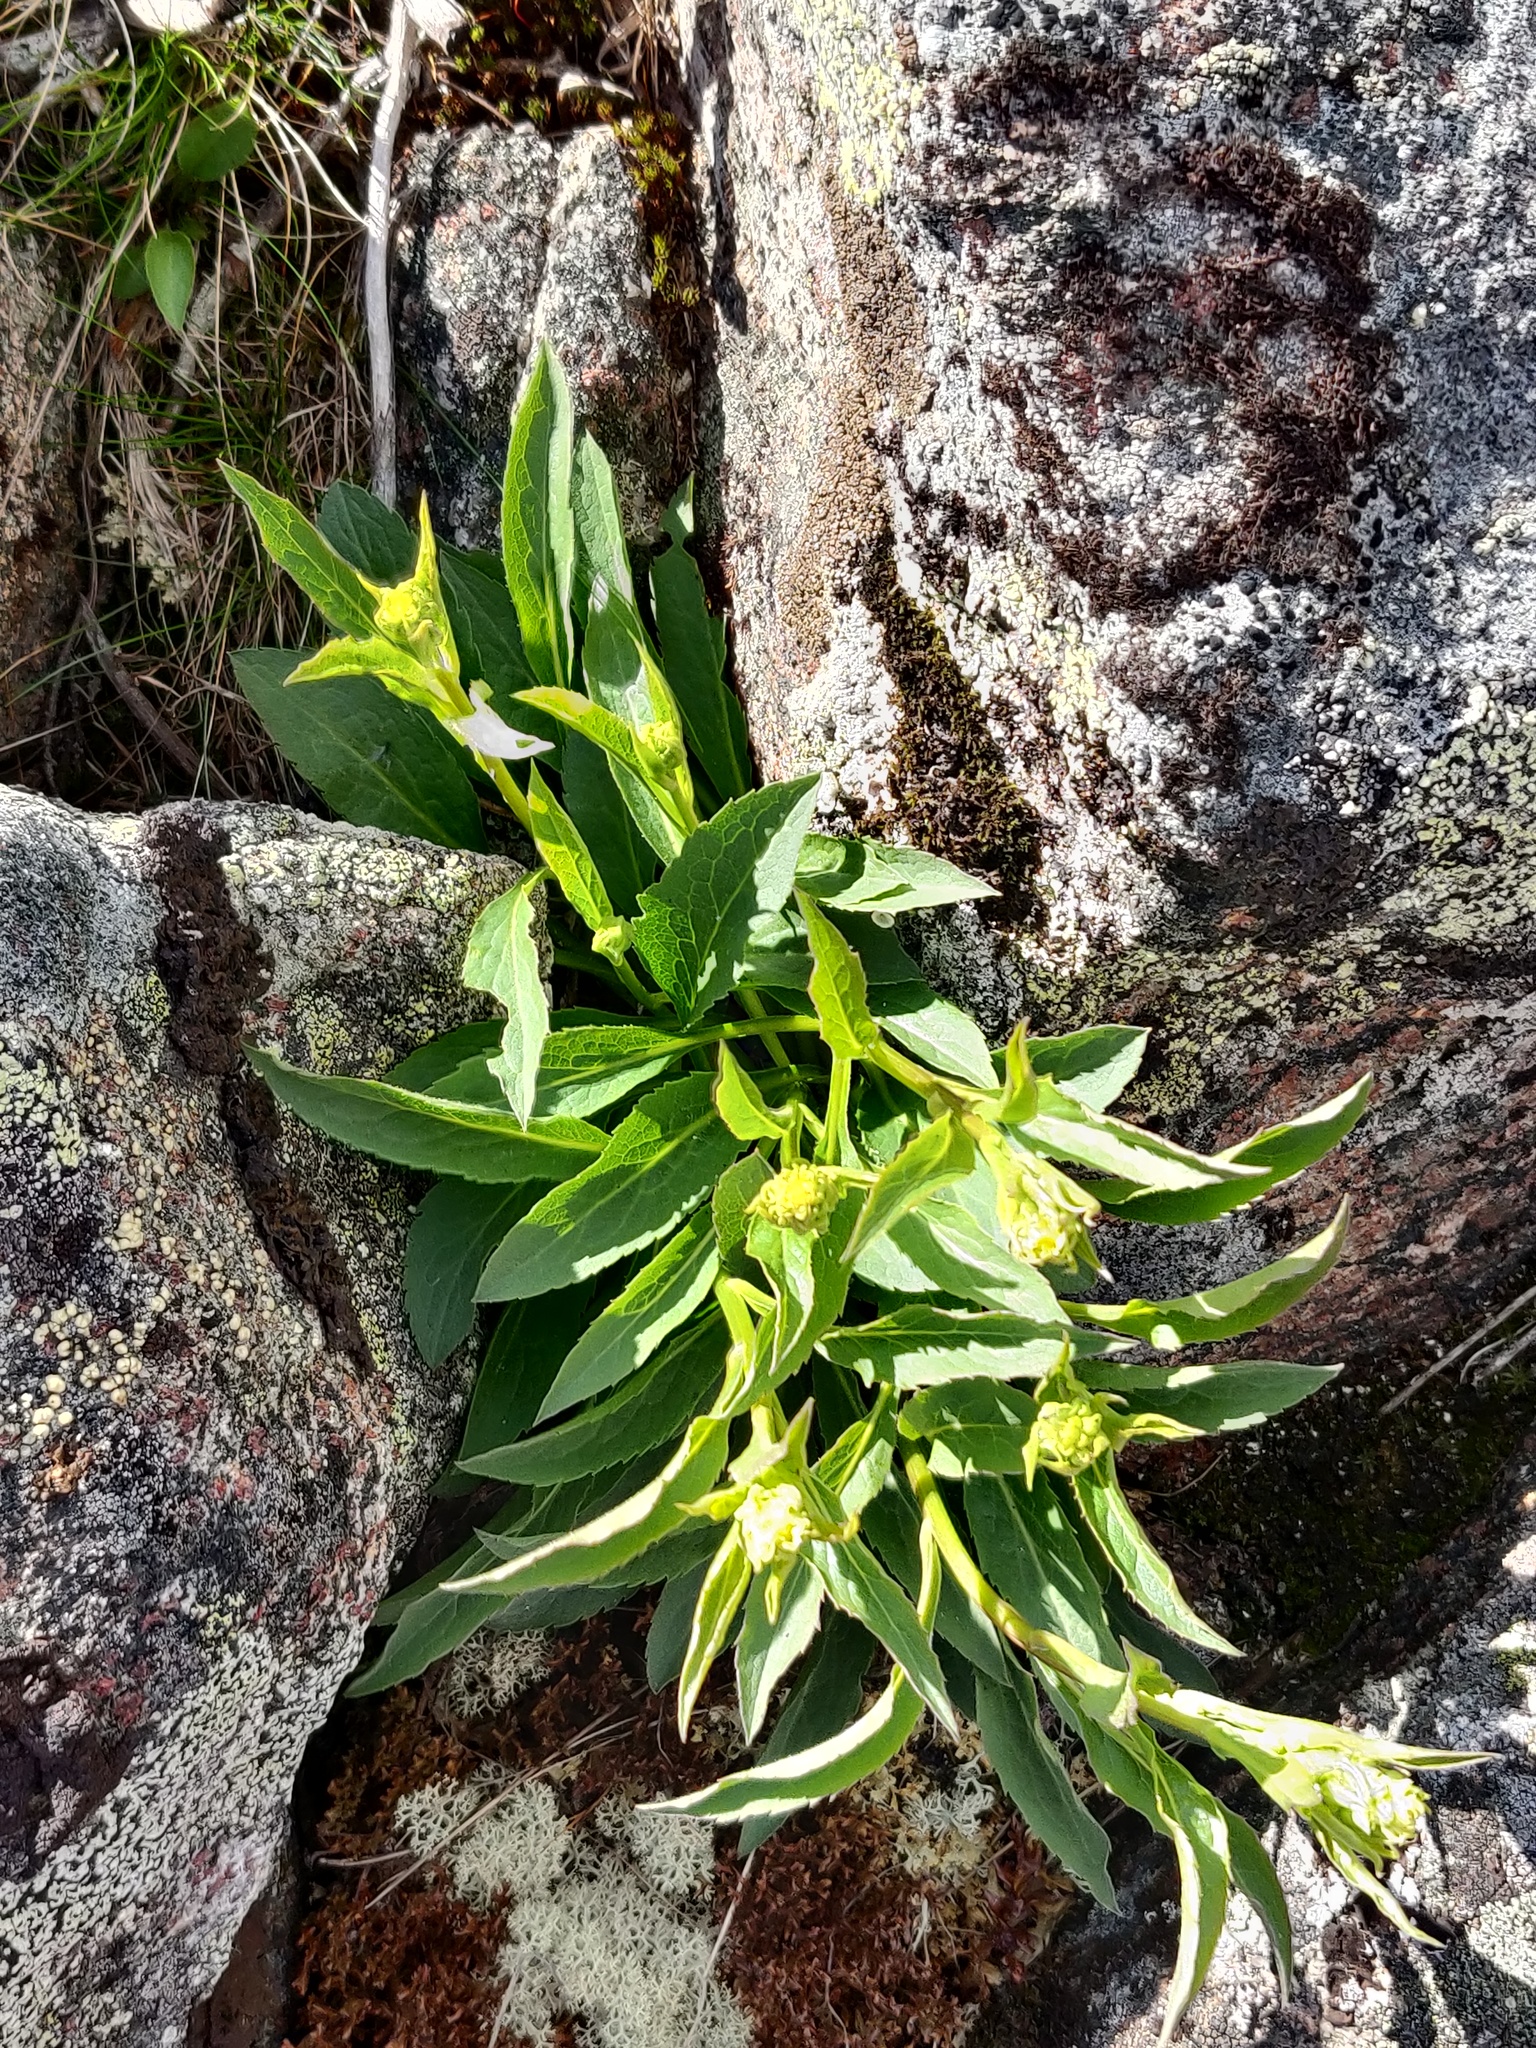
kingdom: Plantae
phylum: Tracheophyta
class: Magnoliopsida
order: Asterales
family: Asteraceae
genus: Solidago
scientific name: Solidago virgaurea
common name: Goldenrod
